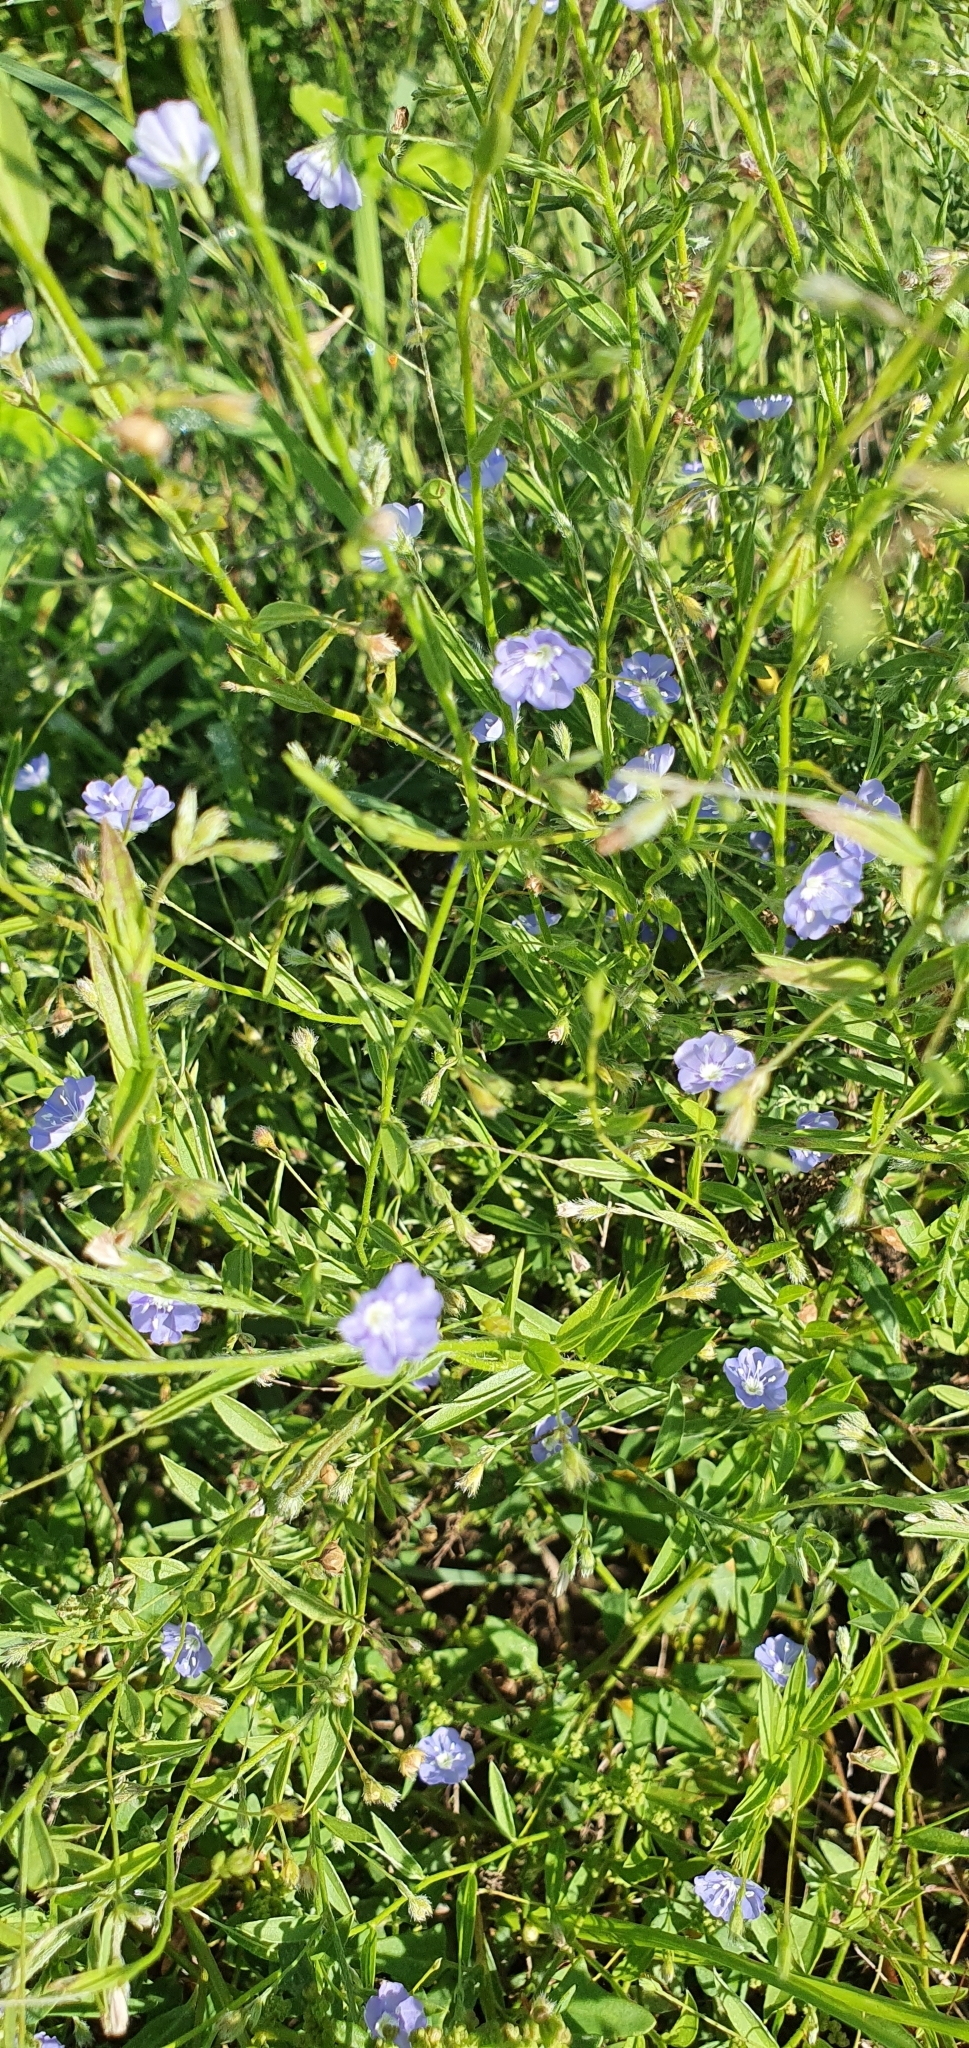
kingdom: Plantae
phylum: Tracheophyta
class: Magnoliopsida
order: Solanales
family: Convolvulaceae
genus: Evolvulus
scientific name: Evolvulus alsinoides
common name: Slender dwarf morning-glory
